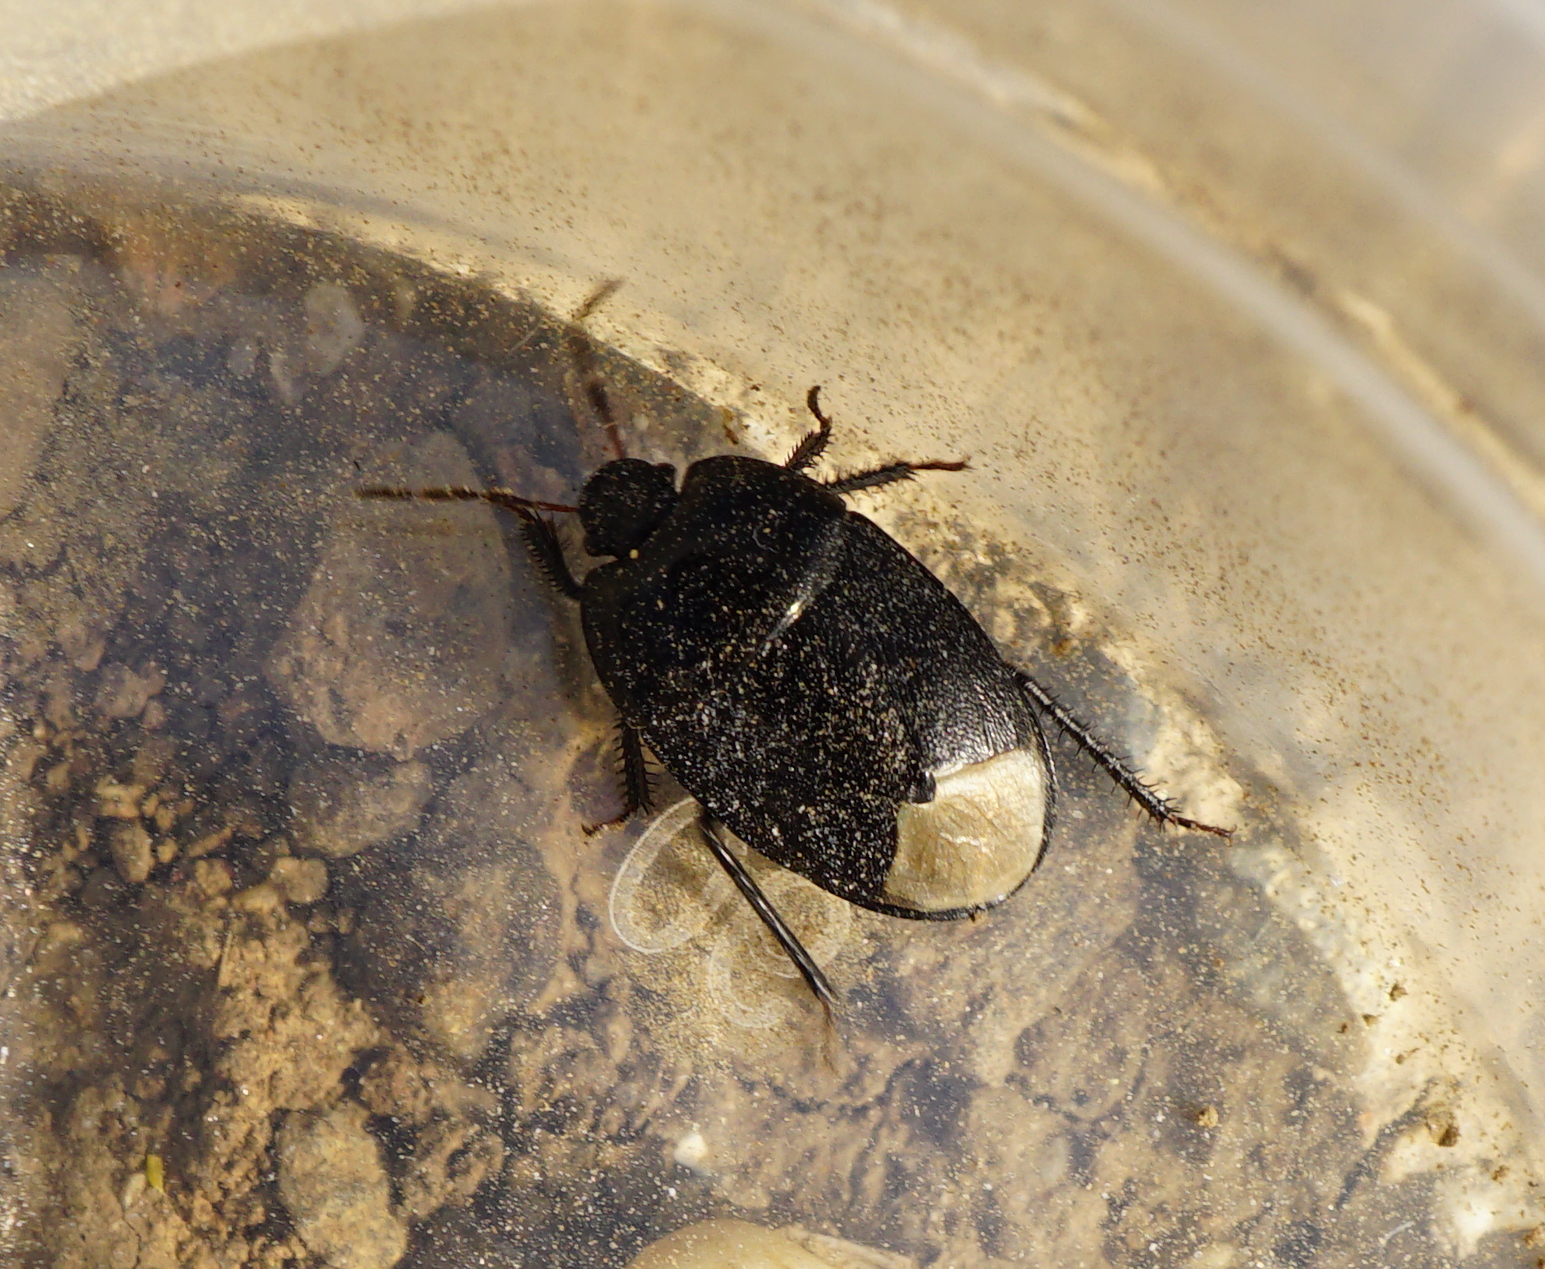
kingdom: Animalia
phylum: Arthropoda
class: Insecta
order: Hemiptera
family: Cydnidae
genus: Sehirus
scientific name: Sehirus luctuosus
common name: Forget-me-not shieldbug
